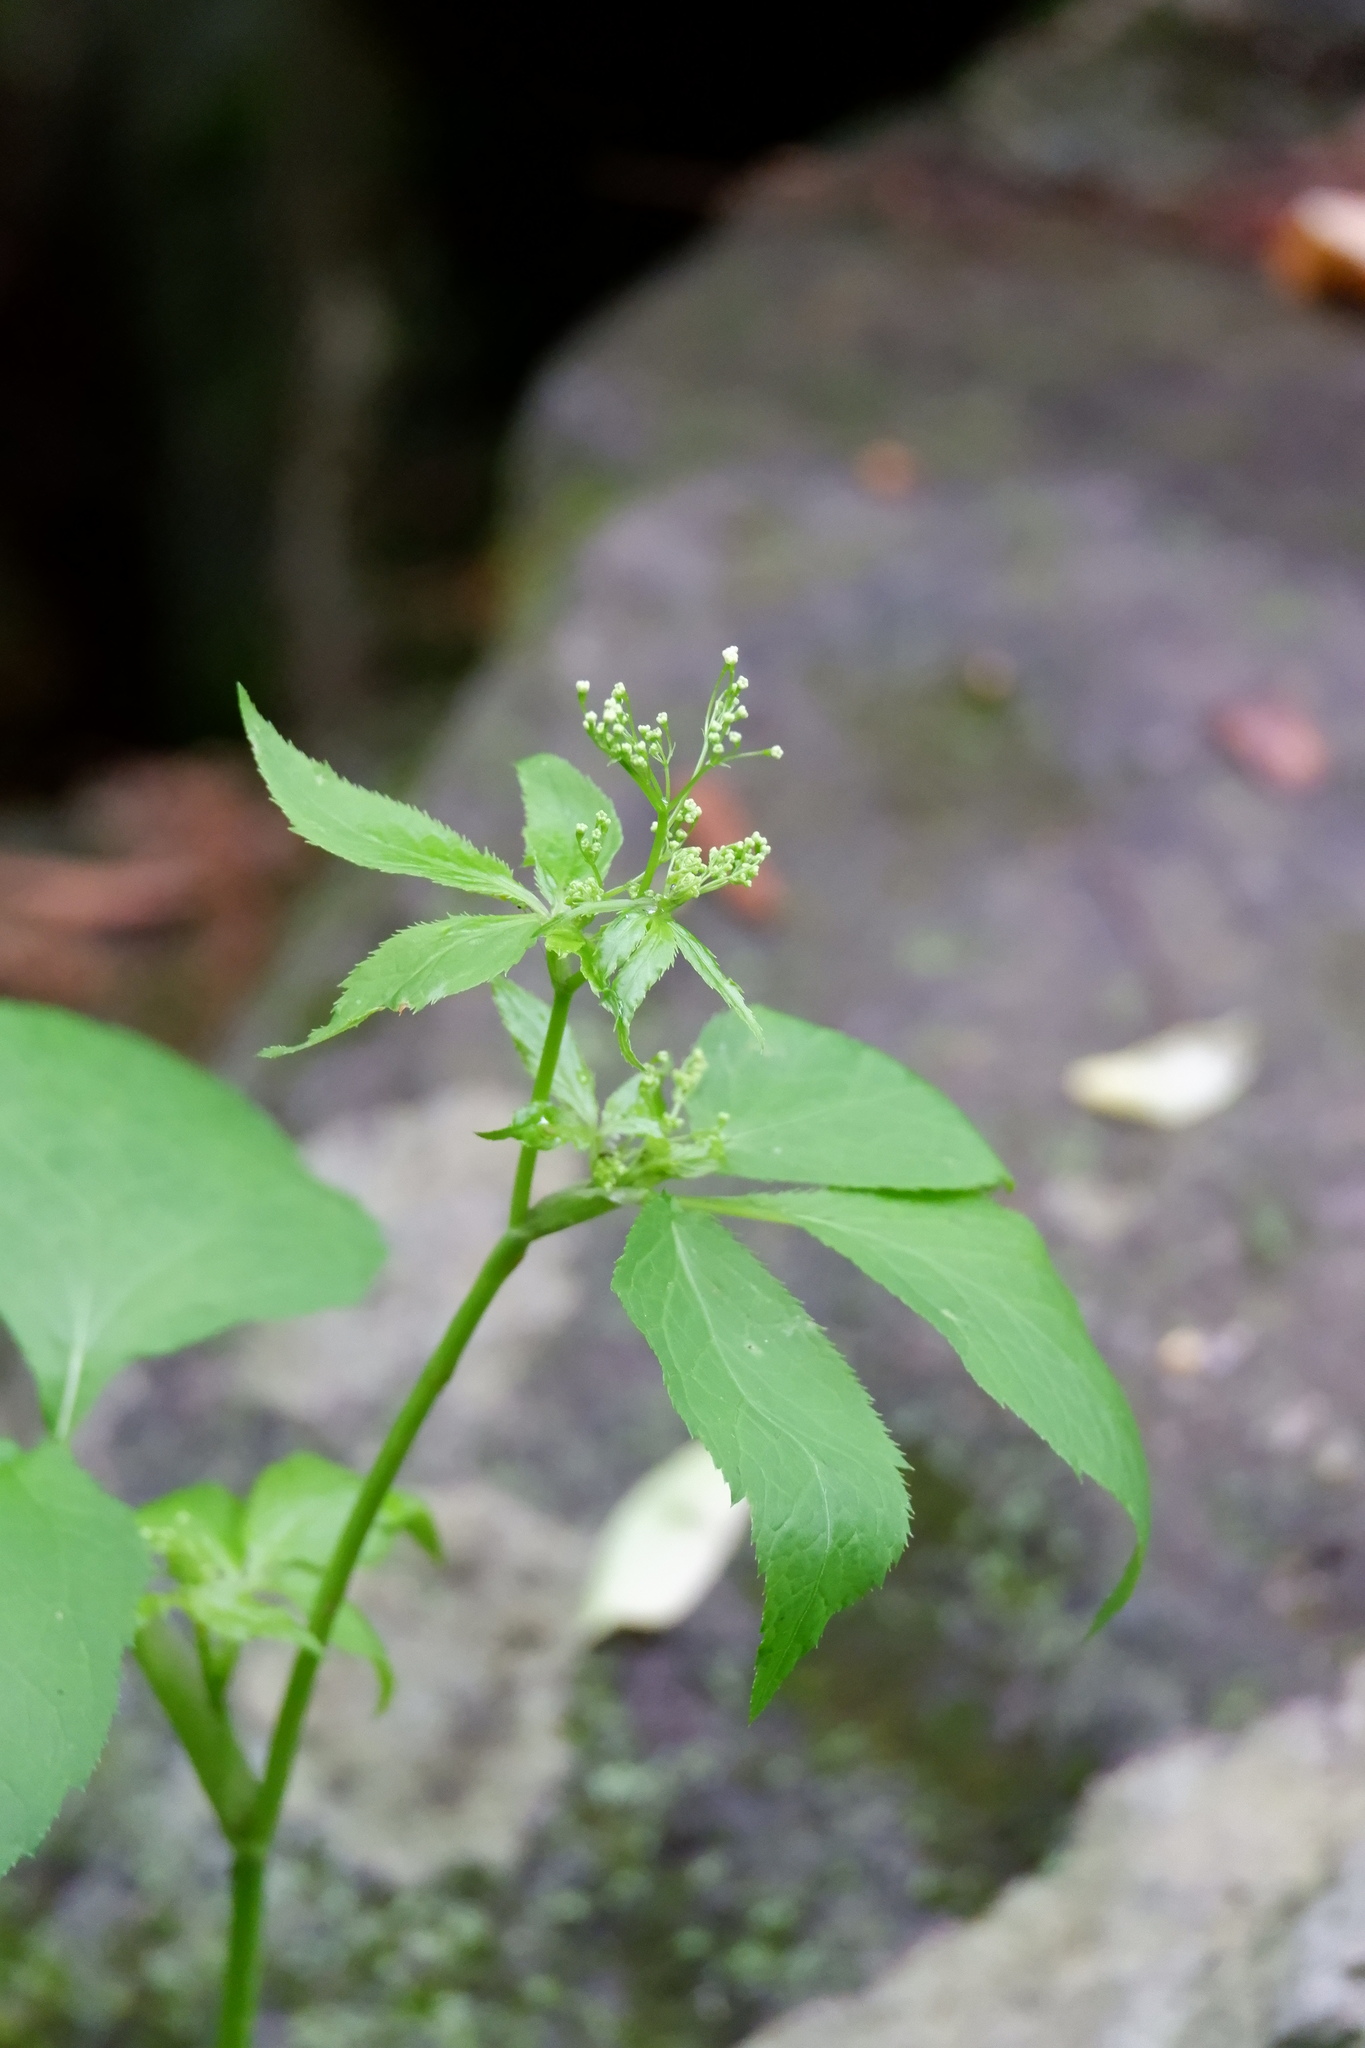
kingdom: Plantae
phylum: Tracheophyta
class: Magnoliopsida
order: Apiales
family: Apiaceae
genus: Cryptotaenia
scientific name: Cryptotaenia canadensis
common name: Honewort
